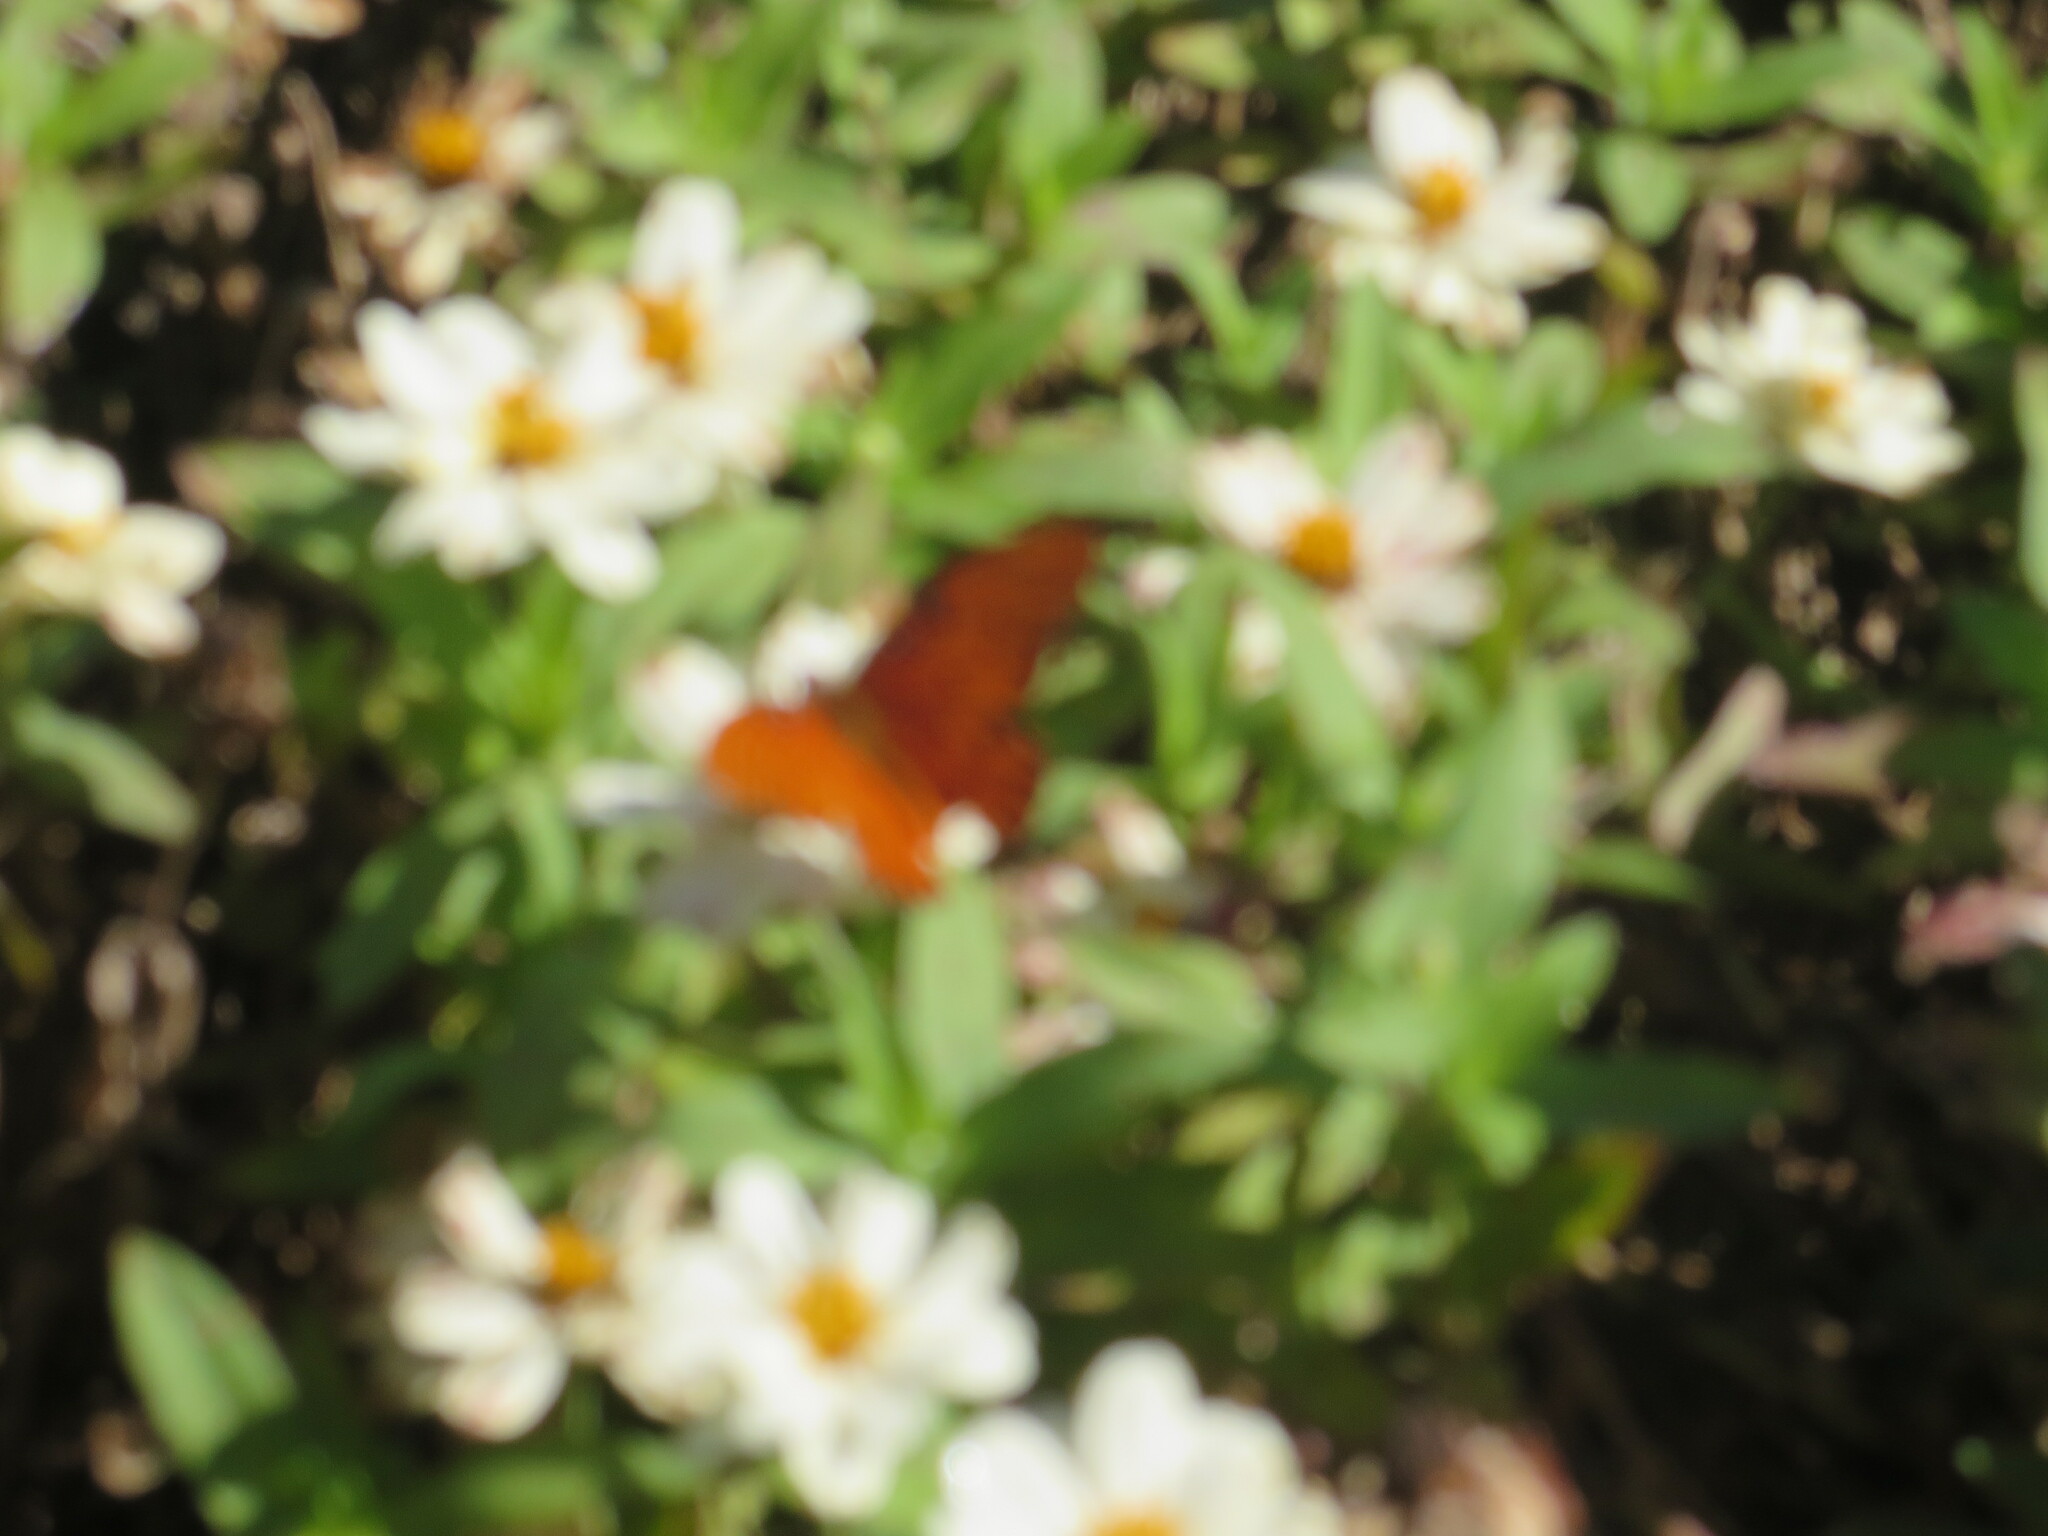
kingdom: Animalia
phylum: Arthropoda
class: Insecta
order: Lepidoptera
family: Nymphalidae
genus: Dione
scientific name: Dione vanillae
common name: Gulf fritillary
